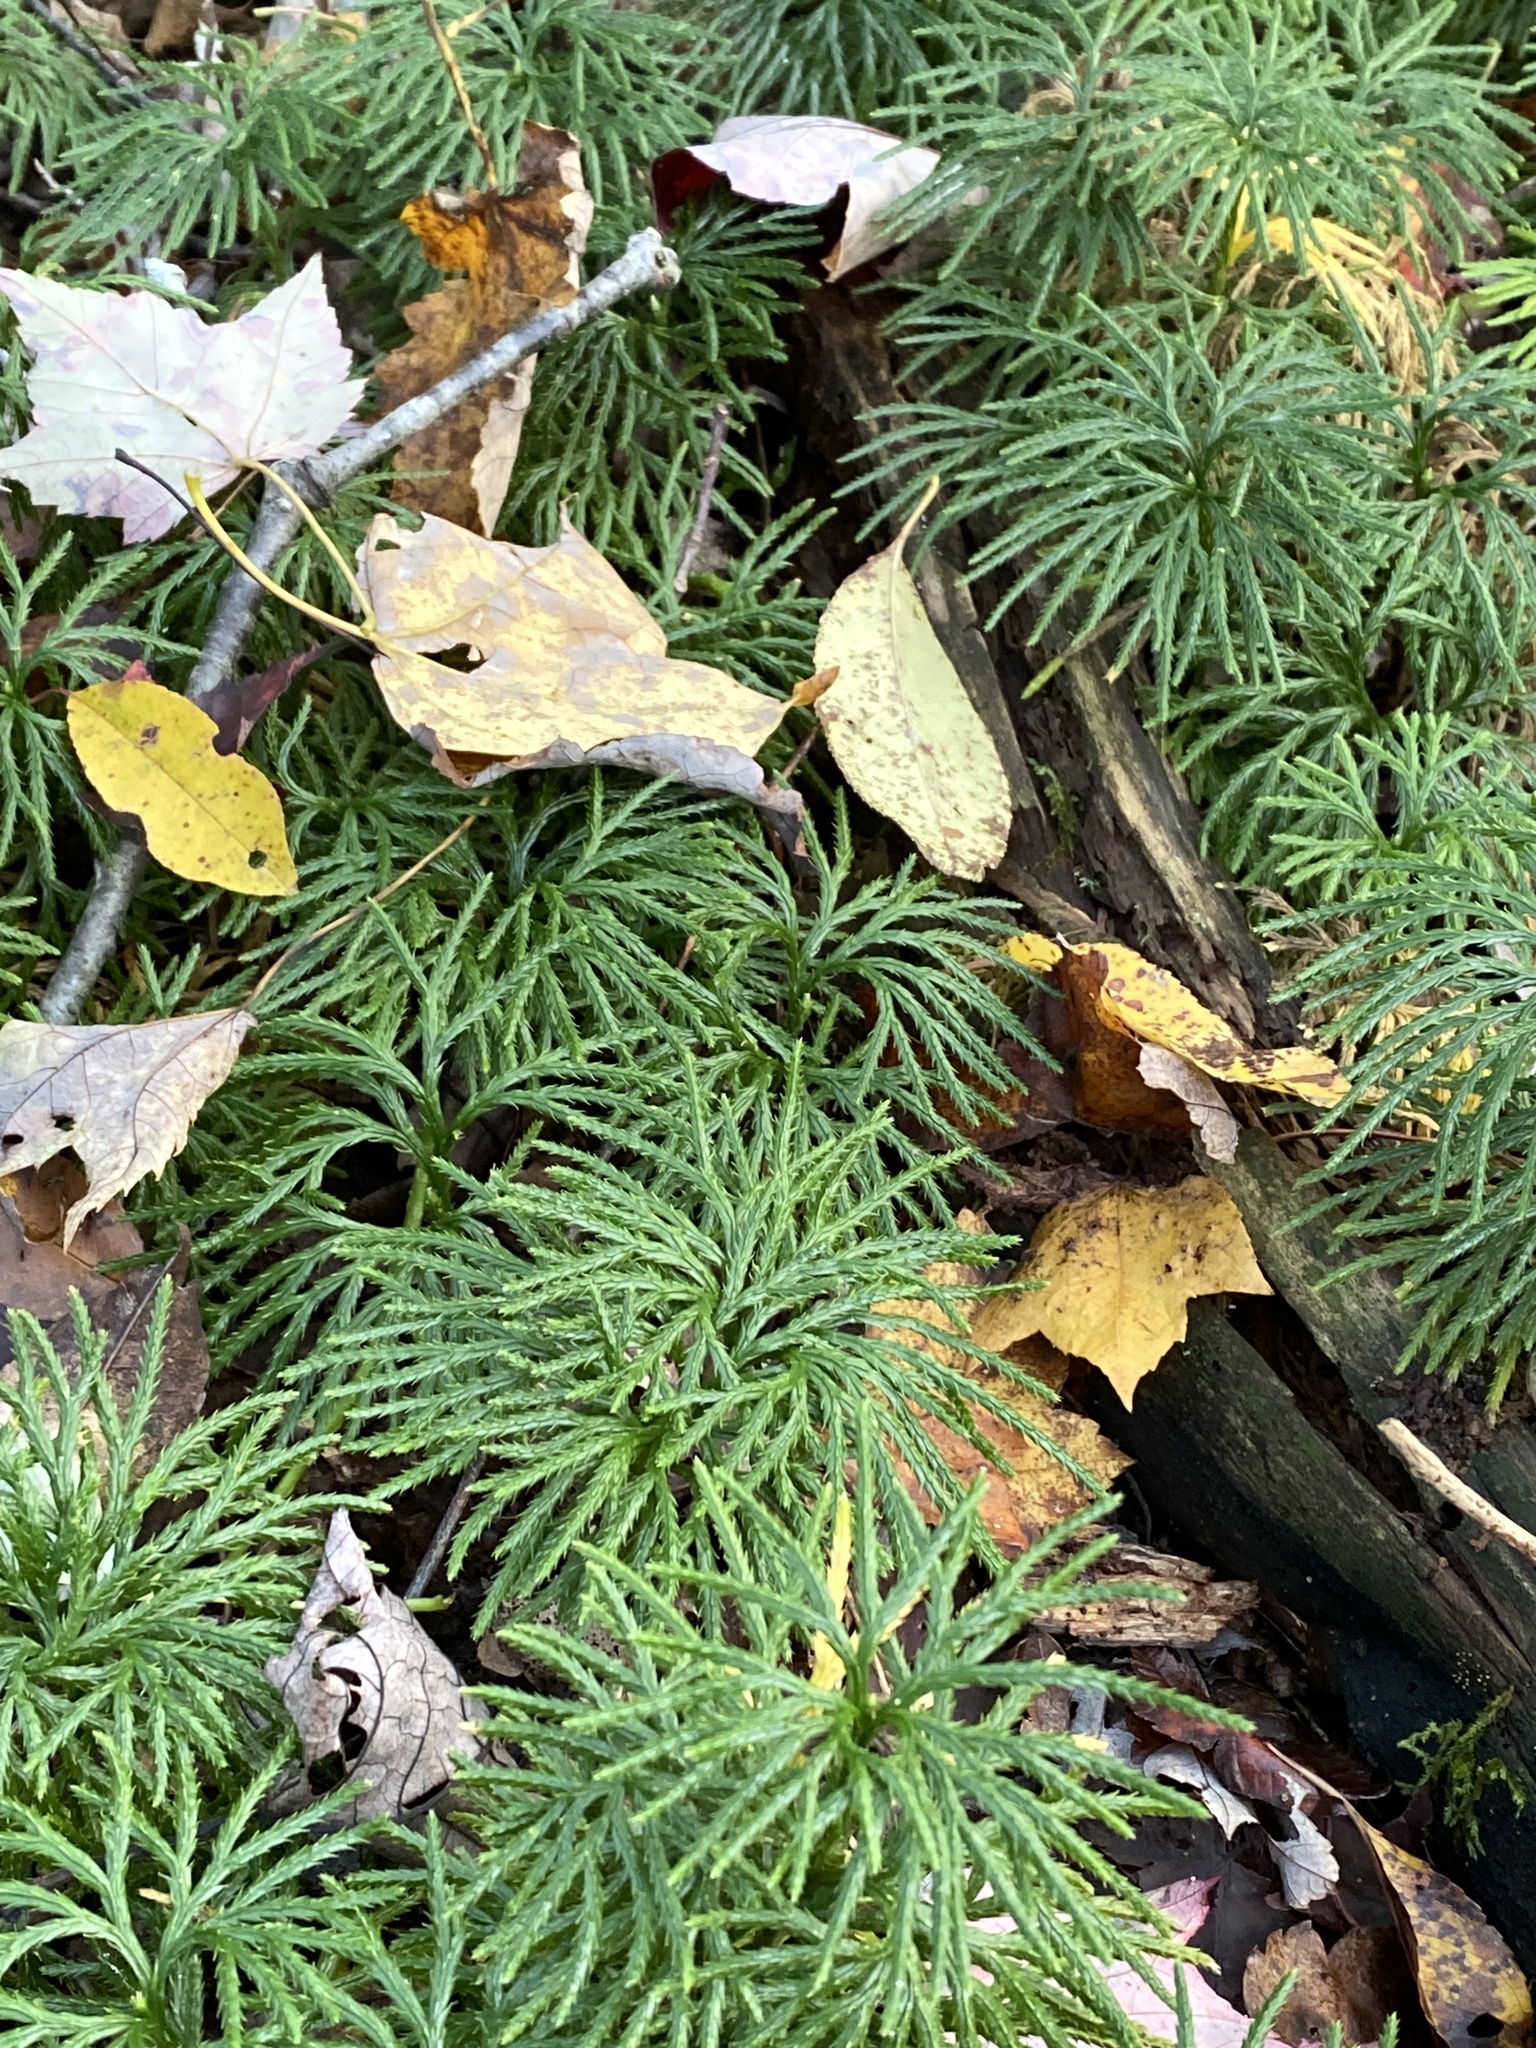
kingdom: Plantae
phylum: Tracheophyta
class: Lycopodiopsida
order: Lycopodiales
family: Lycopodiaceae
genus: Diphasiastrum
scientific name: Diphasiastrum digitatum
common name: Southern running-pine
